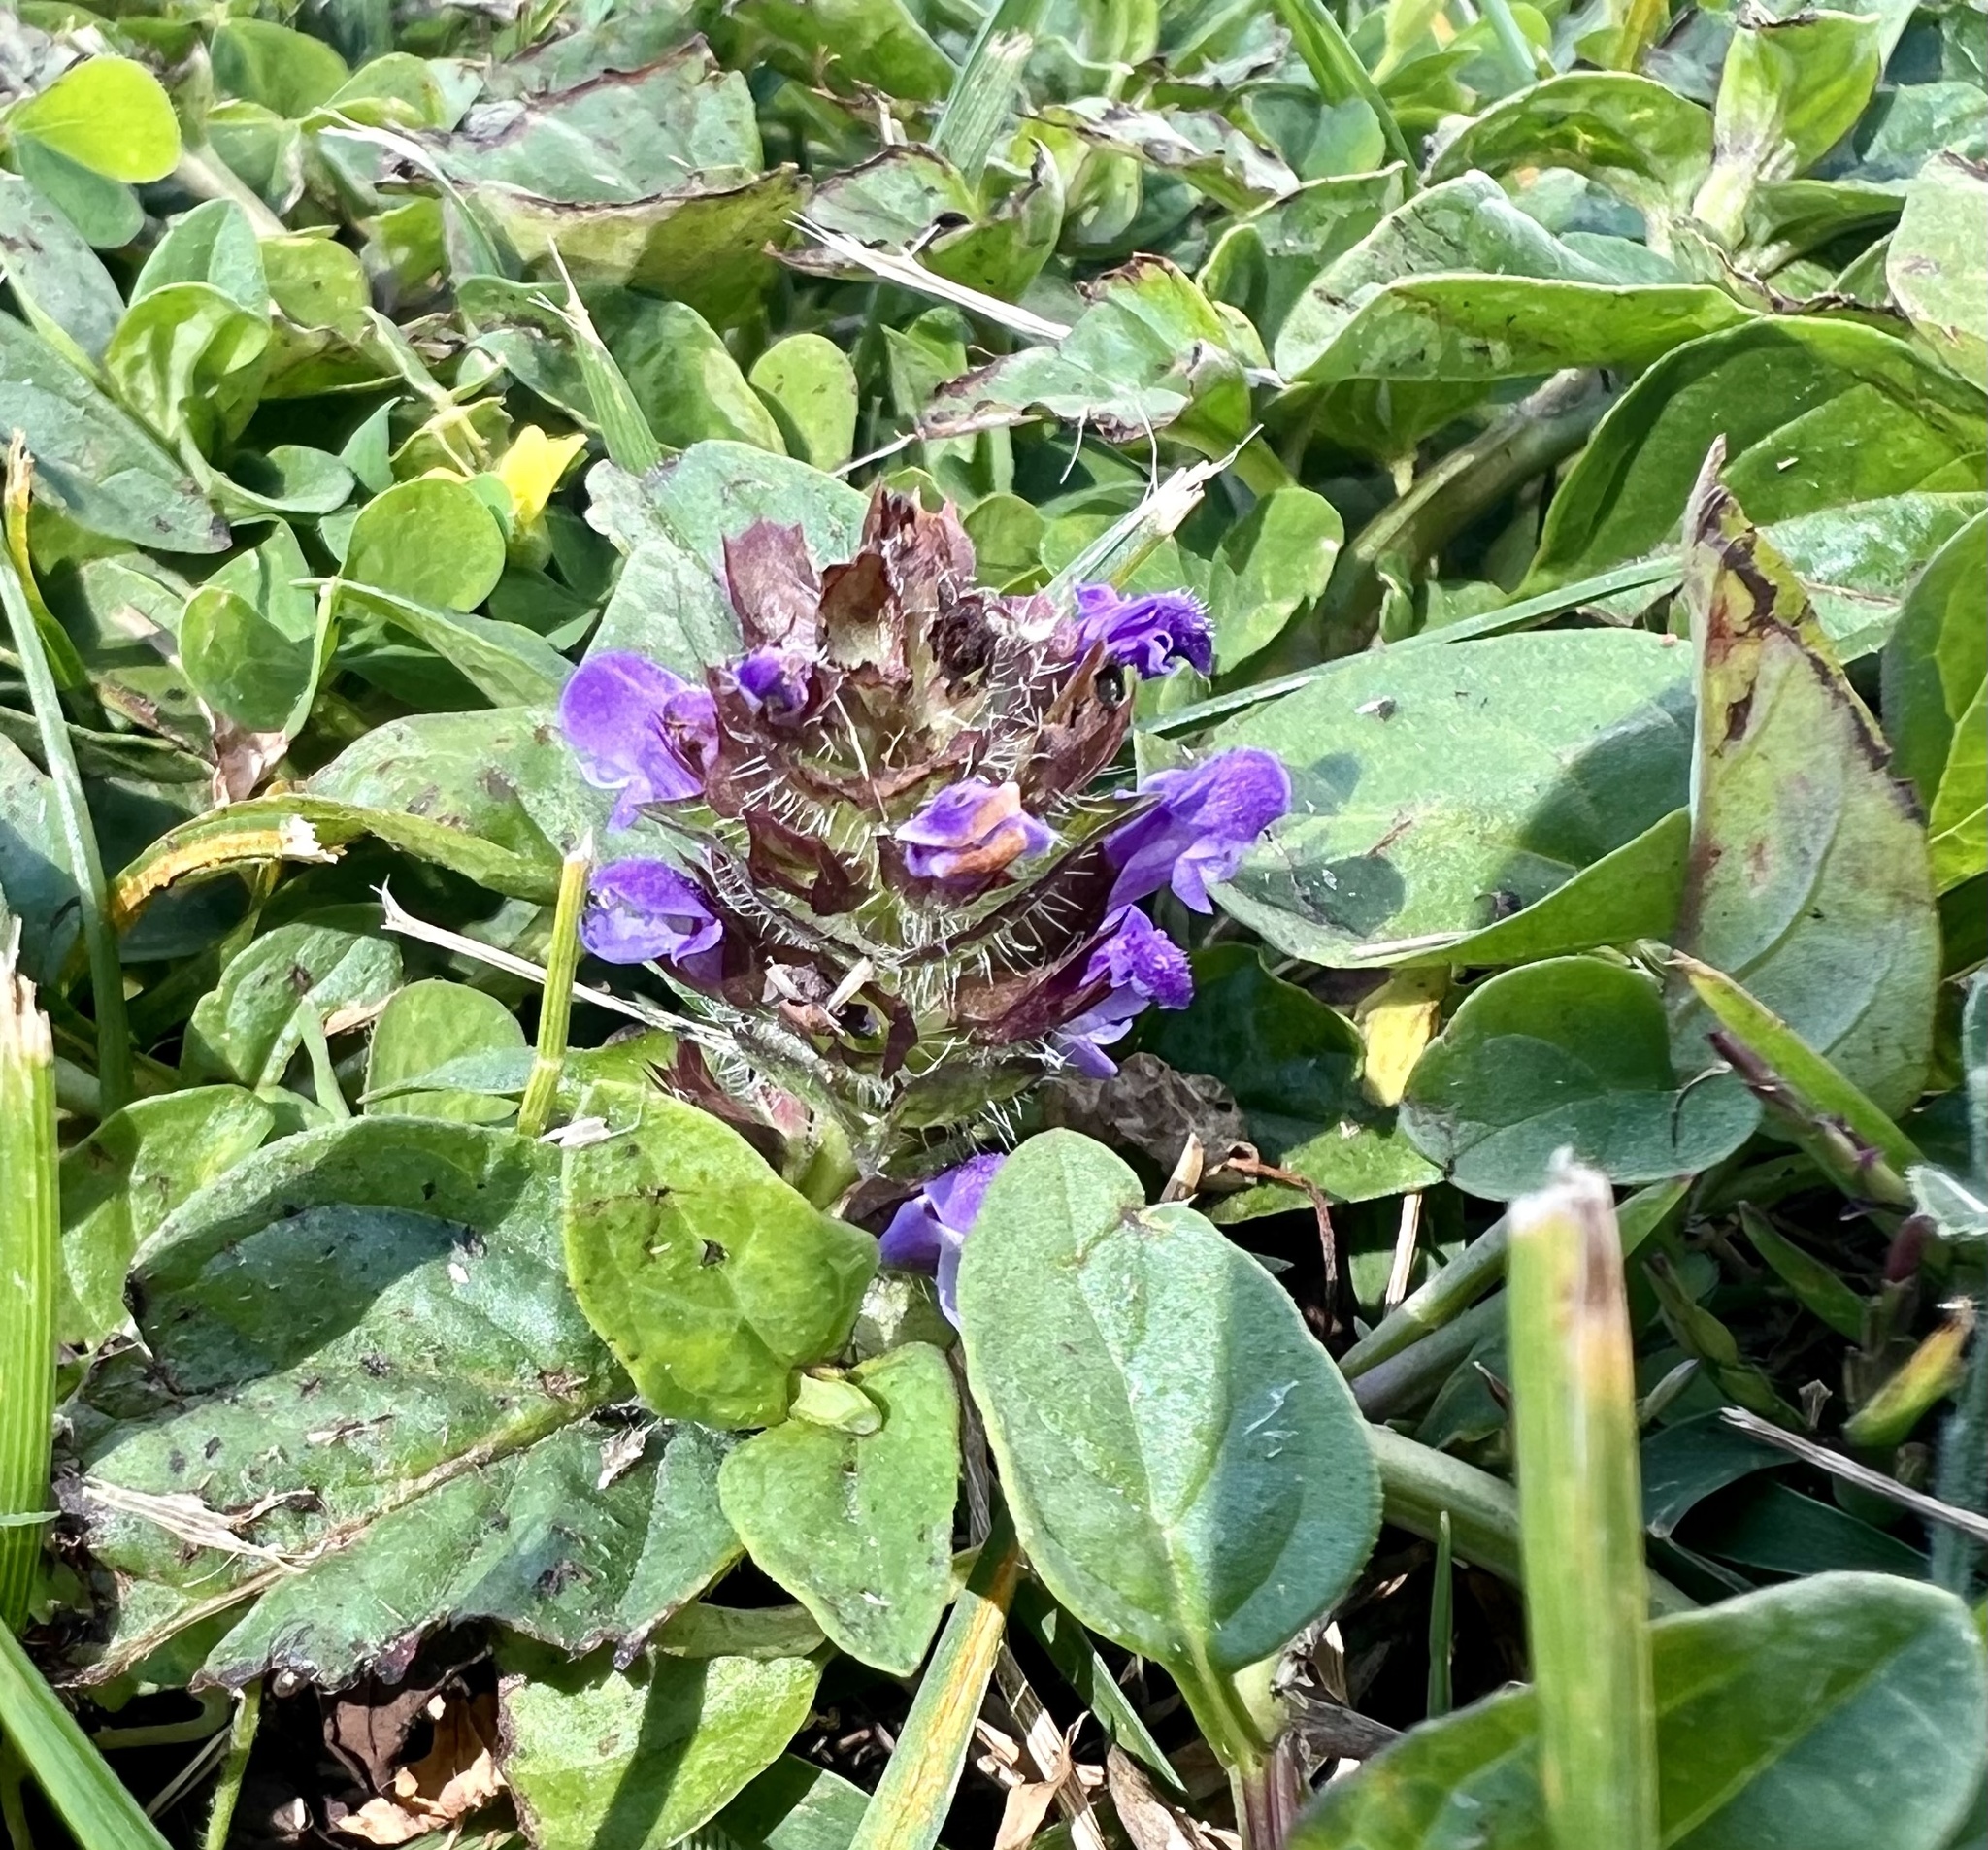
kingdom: Plantae
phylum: Tracheophyta
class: Magnoliopsida
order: Lamiales
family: Lamiaceae
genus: Prunella
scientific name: Prunella vulgaris
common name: Heal-all
